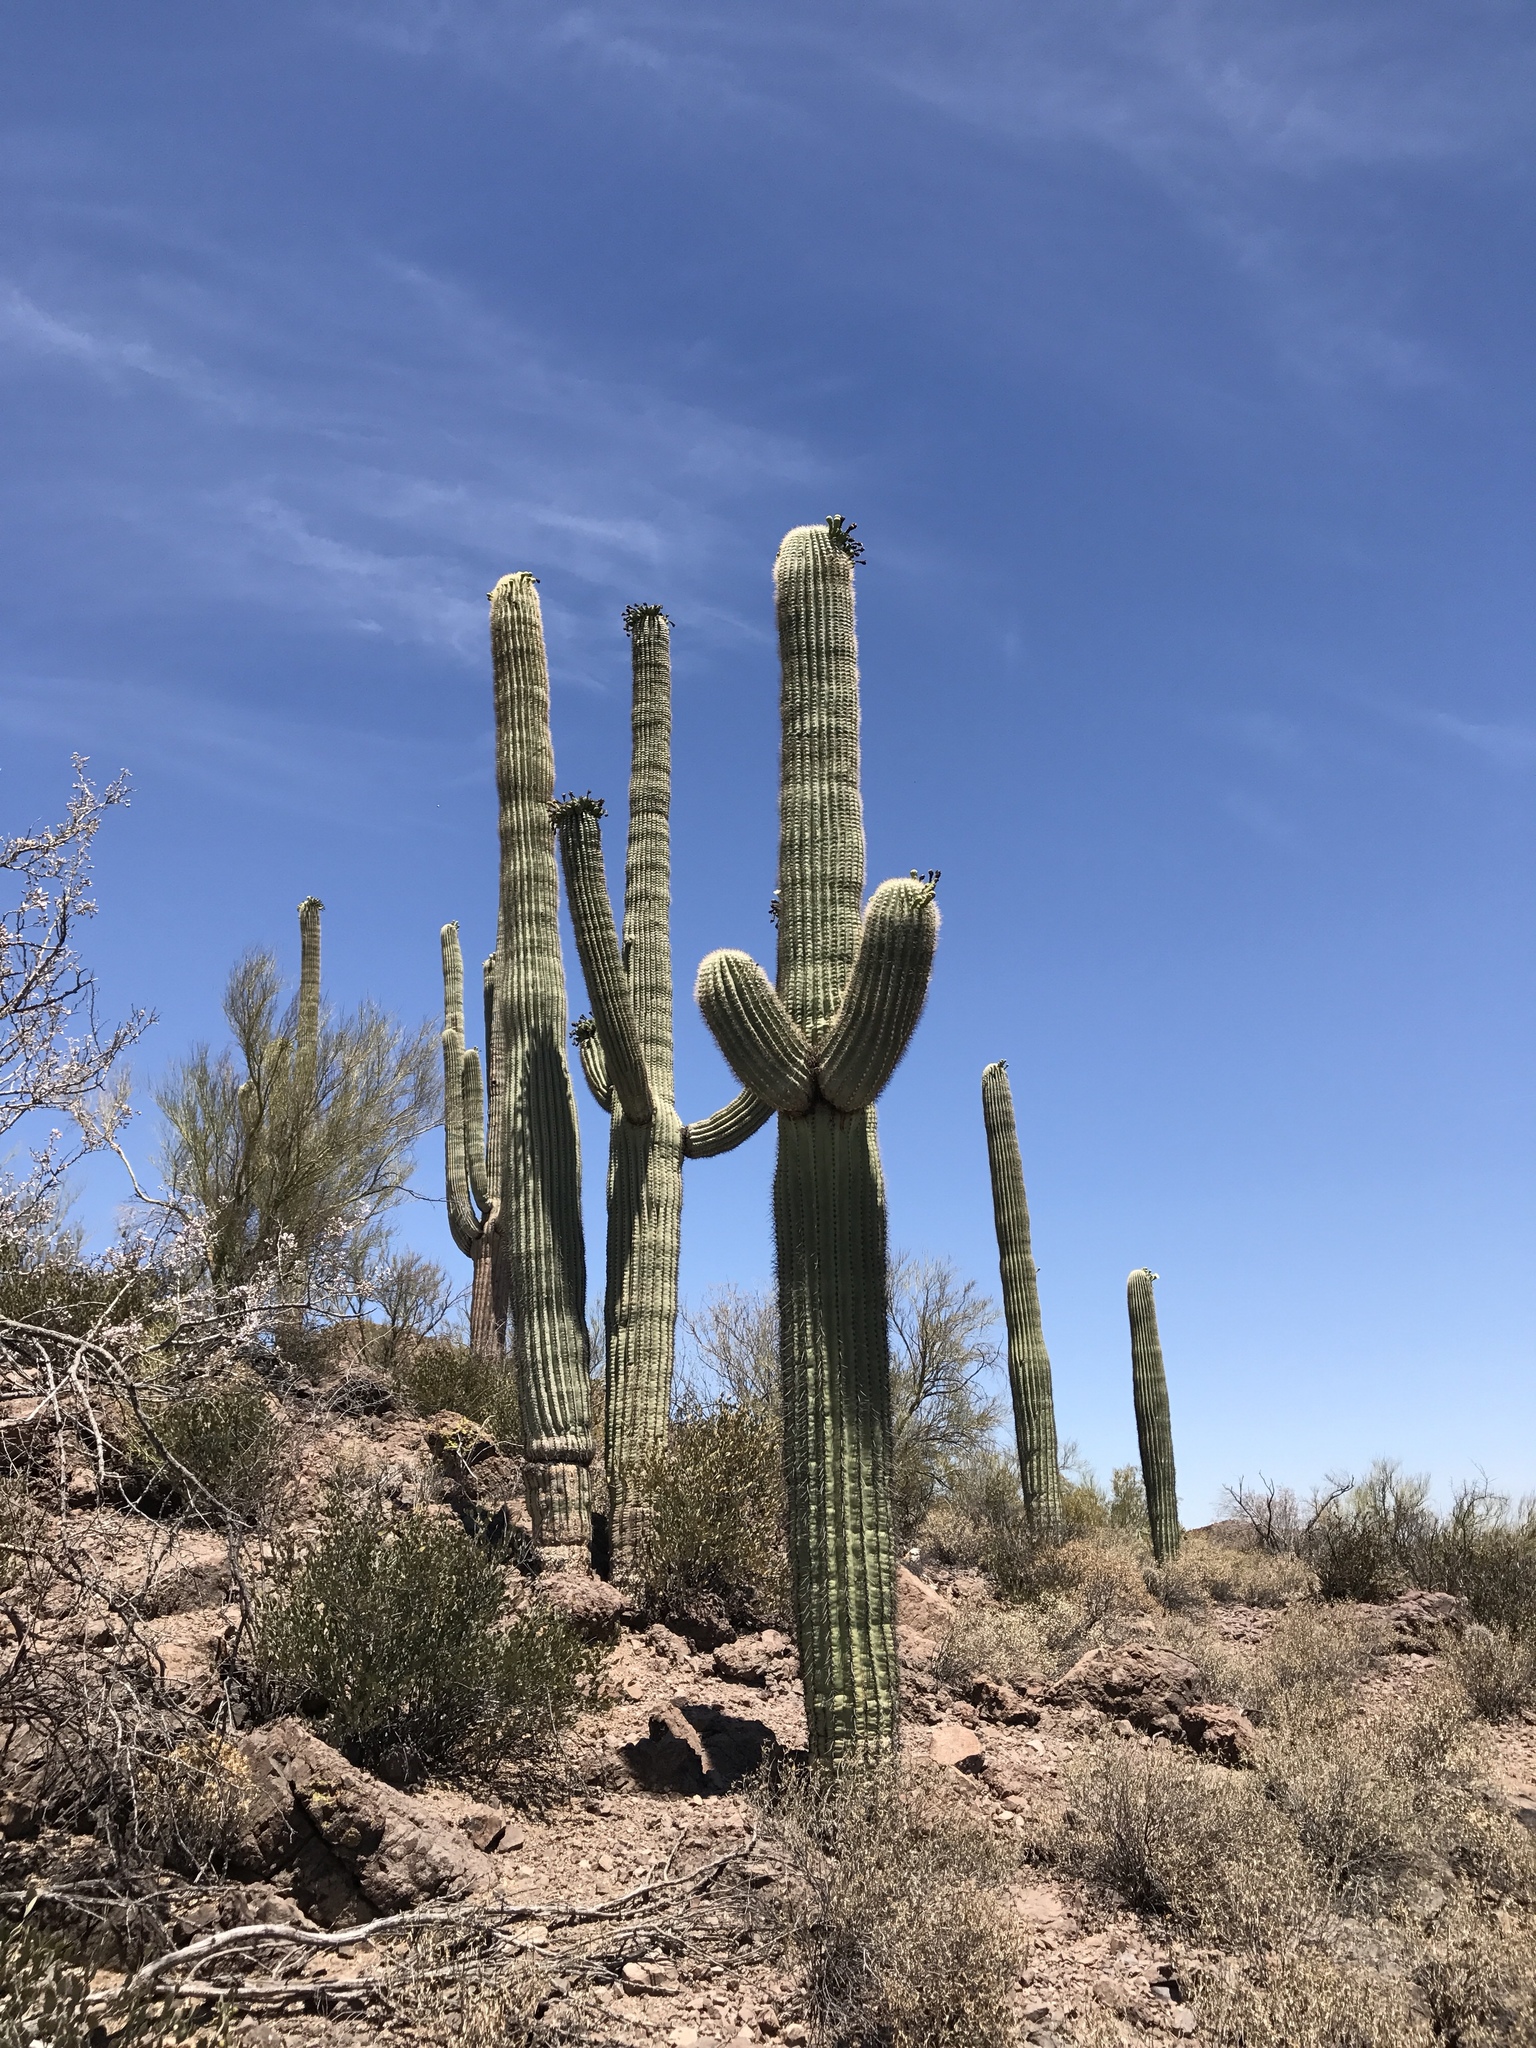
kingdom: Plantae
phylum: Tracheophyta
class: Magnoliopsida
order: Caryophyllales
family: Cactaceae
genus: Carnegiea
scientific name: Carnegiea gigantea
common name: Saguaro
